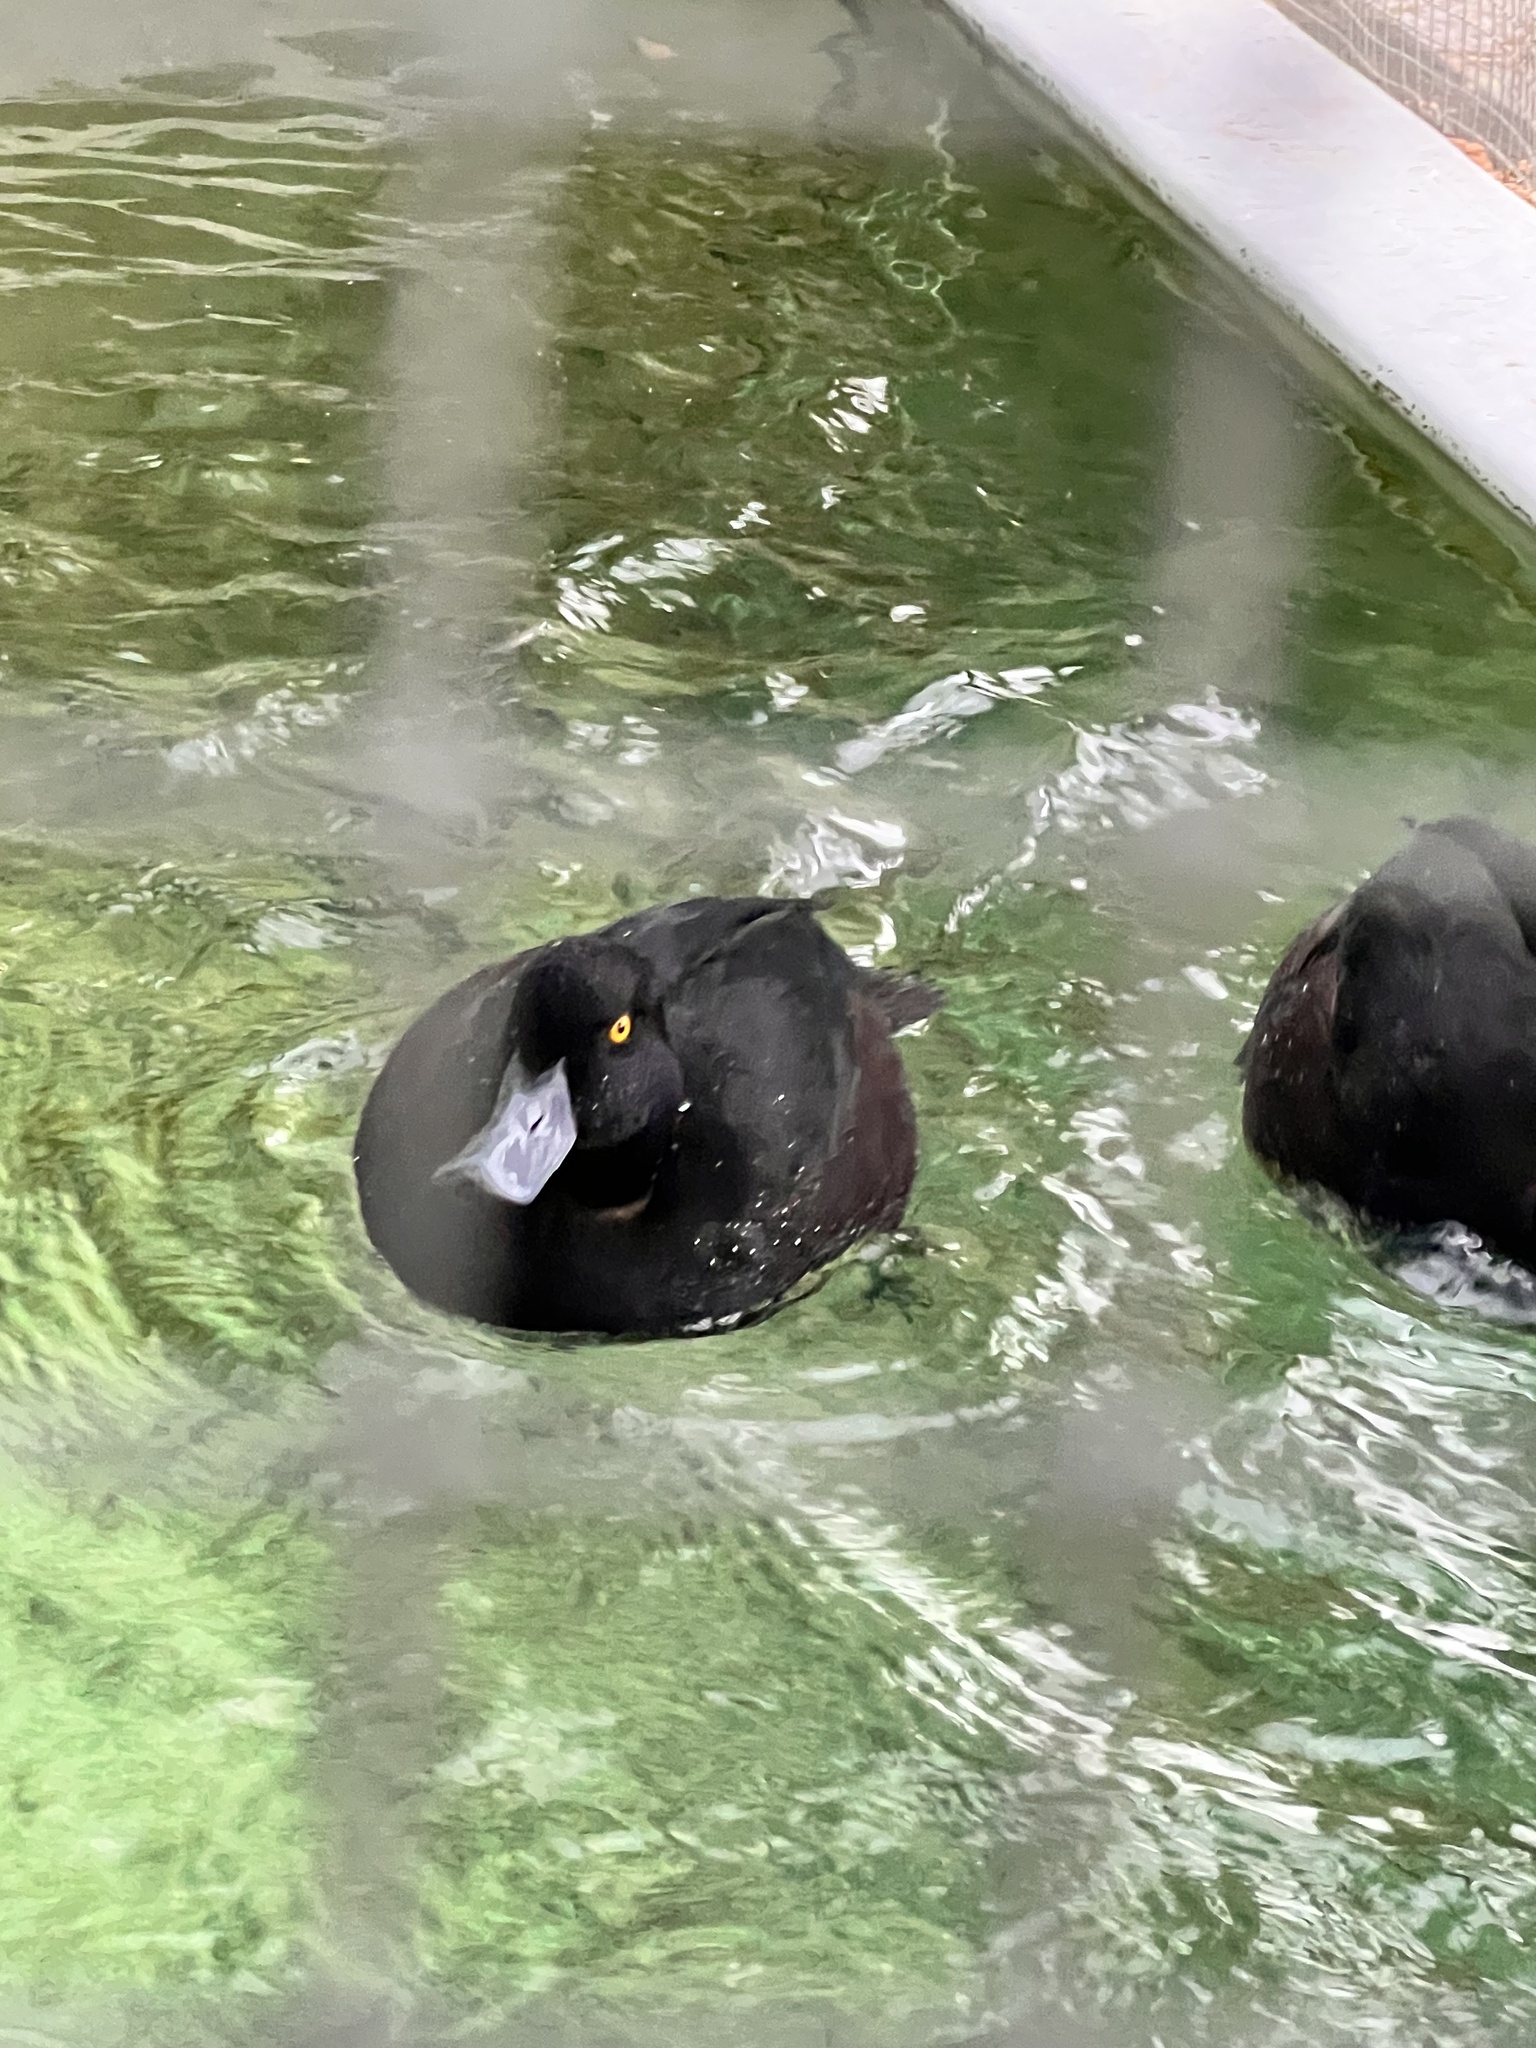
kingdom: Animalia
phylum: Chordata
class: Aves
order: Anseriformes
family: Anatidae
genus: Aythya
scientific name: Aythya novaeseelandiae
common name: New zealand scaup
